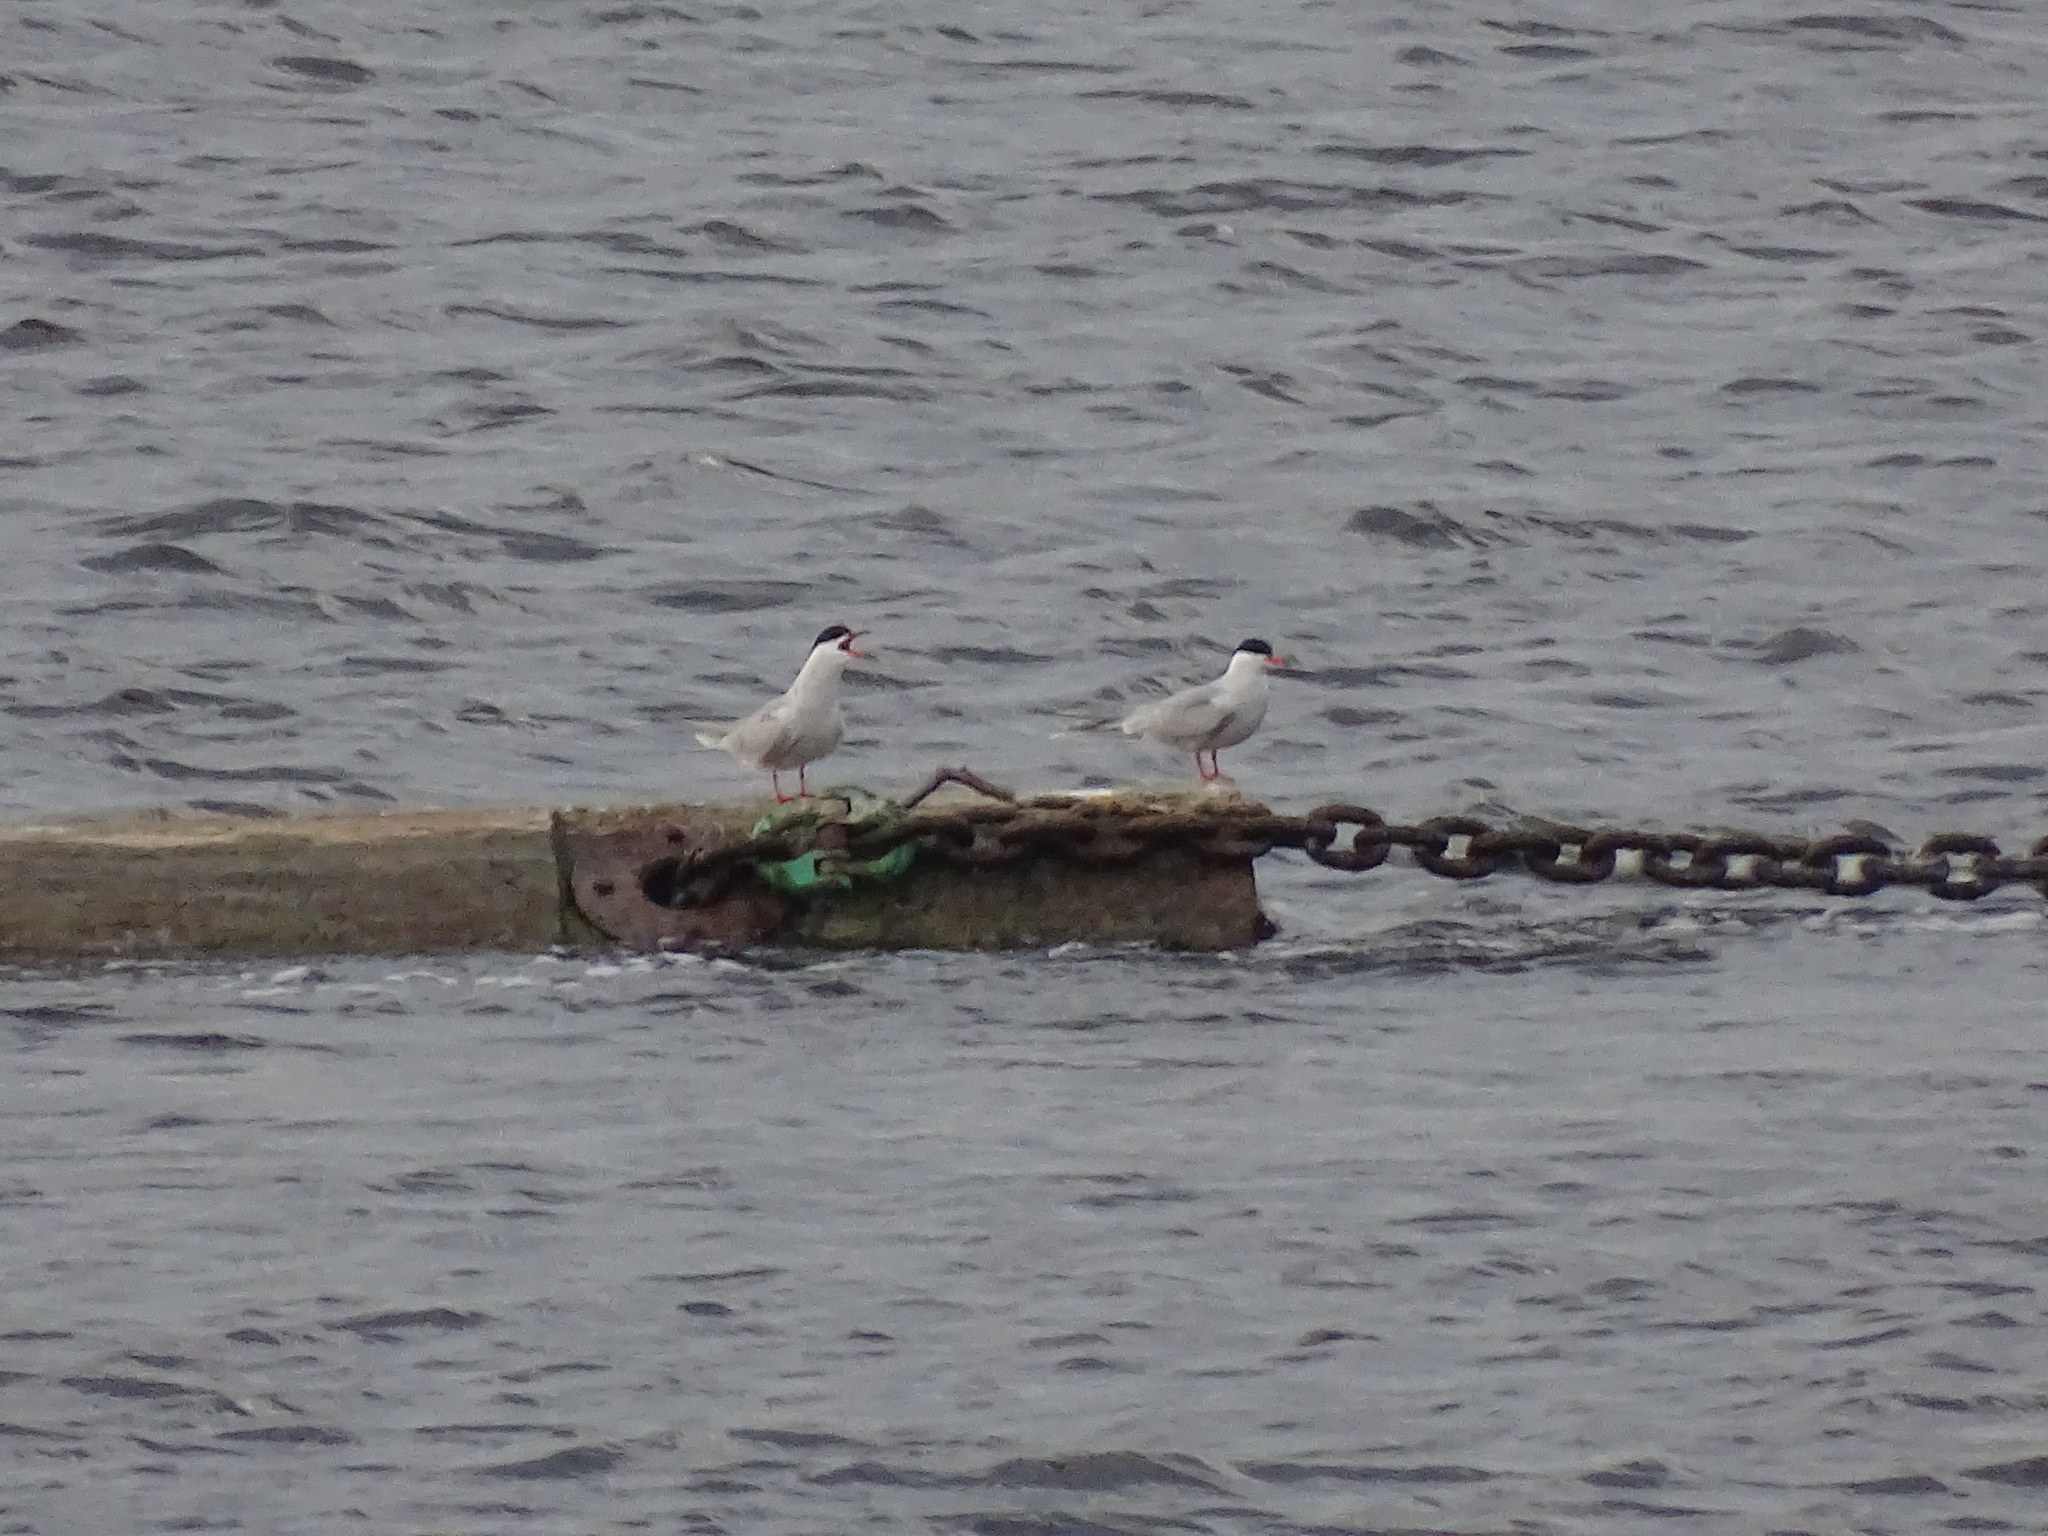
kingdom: Animalia
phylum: Chordata
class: Aves
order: Charadriiformes
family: Laridae
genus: Sterna
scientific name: Sterna hirundo
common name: Common tern
